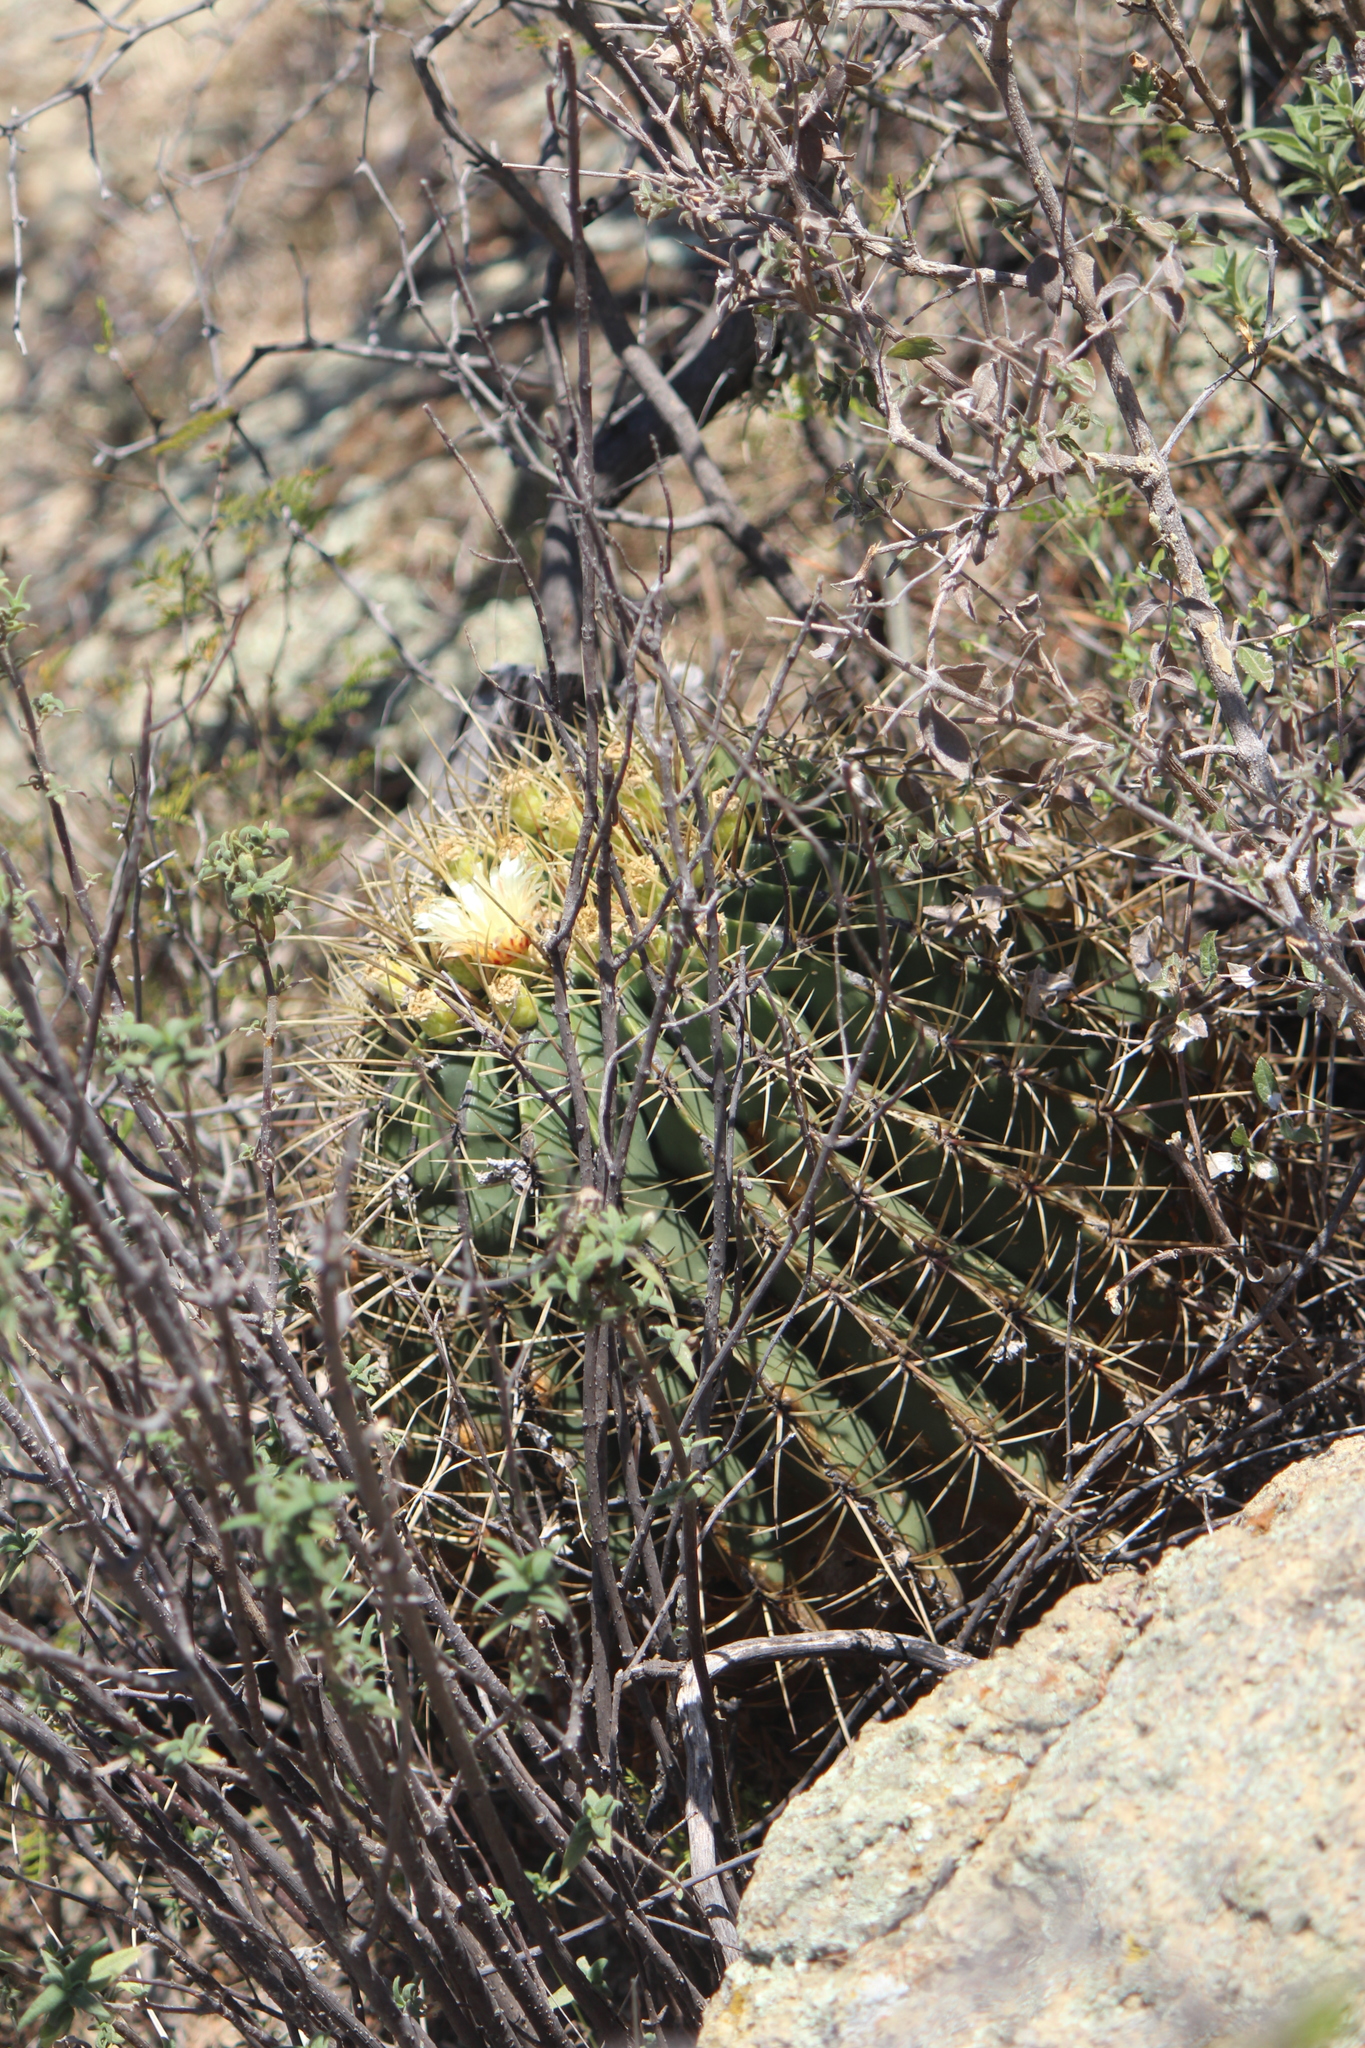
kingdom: Plantae
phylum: Tracheophyta
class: Magnoliopsida
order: Caryophyllales
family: Cactaceae
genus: Bisnaga
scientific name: Bisnaga histrix
